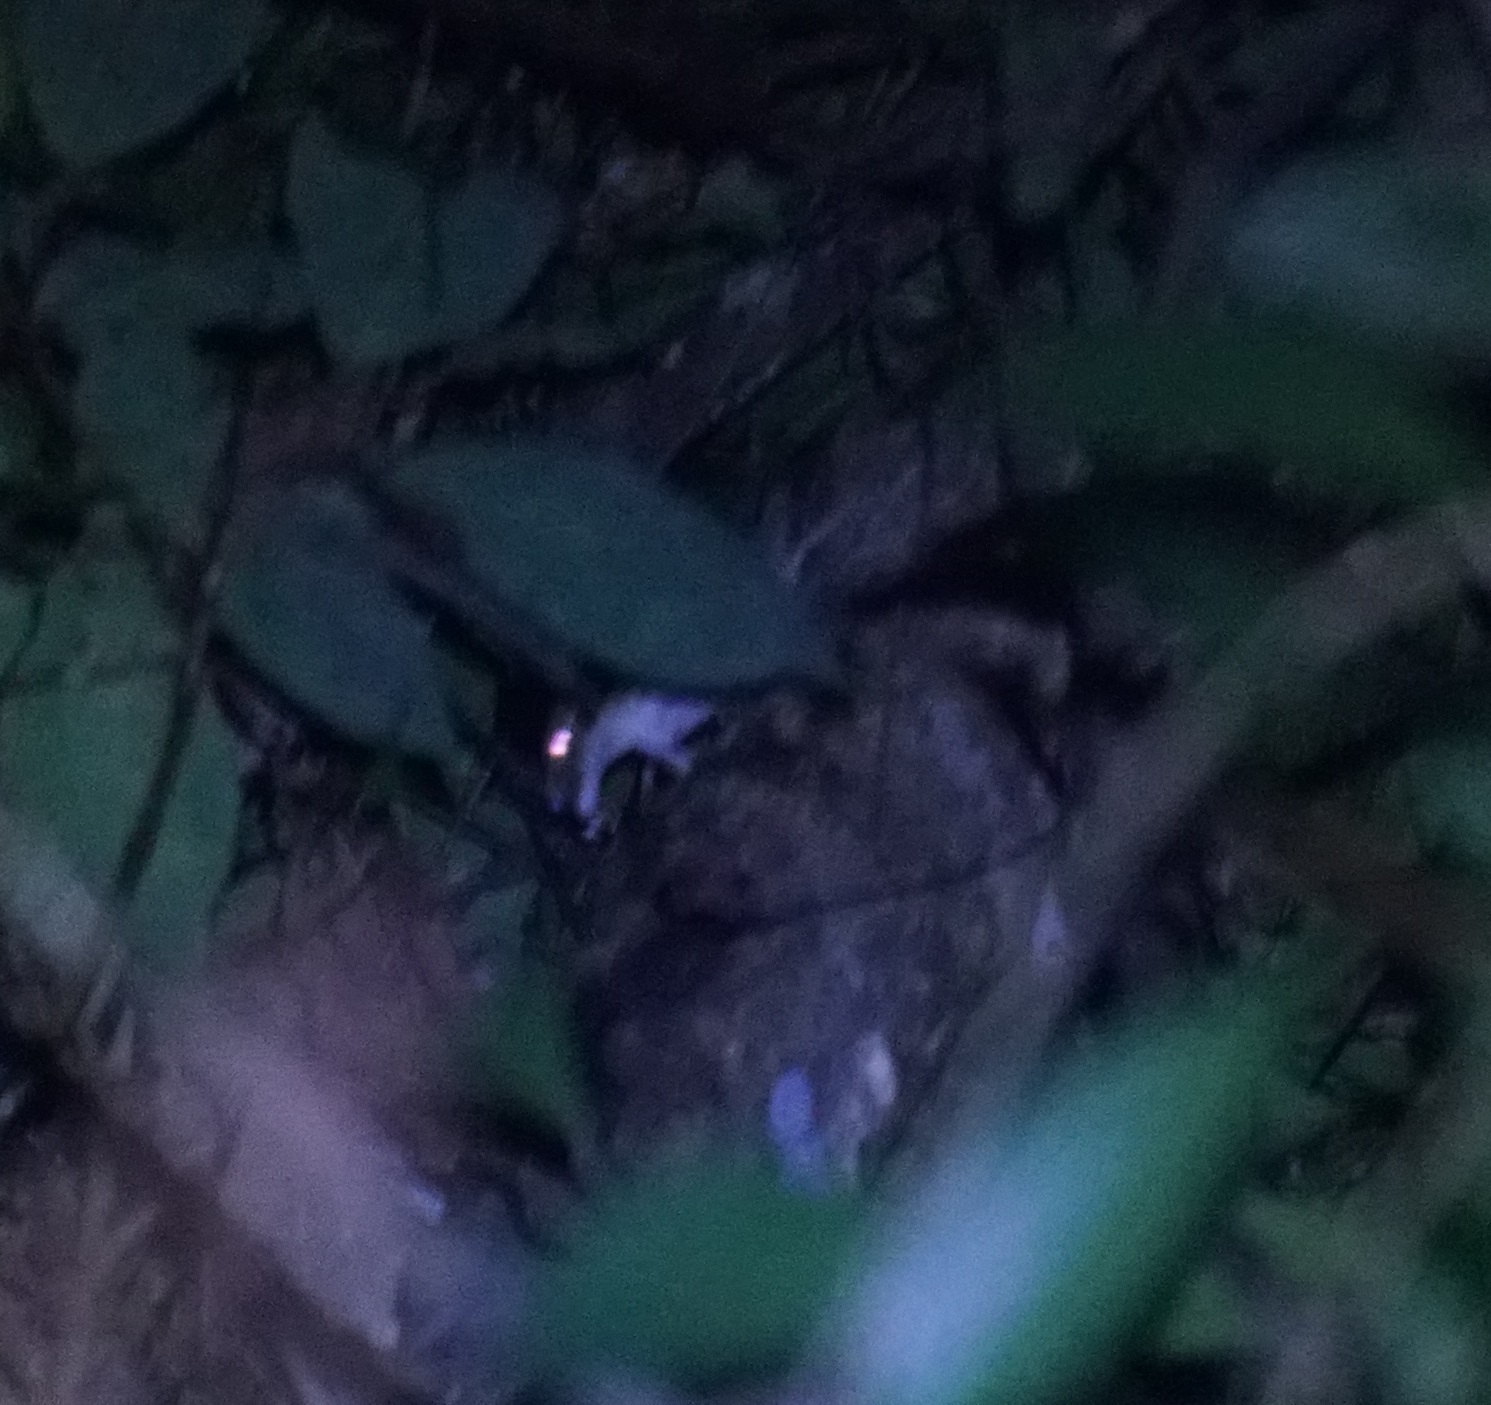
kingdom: Animalia
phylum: Chordata
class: Squamata
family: Carphodactylidae
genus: Saltuarius
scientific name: Saltuarius cornutus
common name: Leaf-tailed gecko
